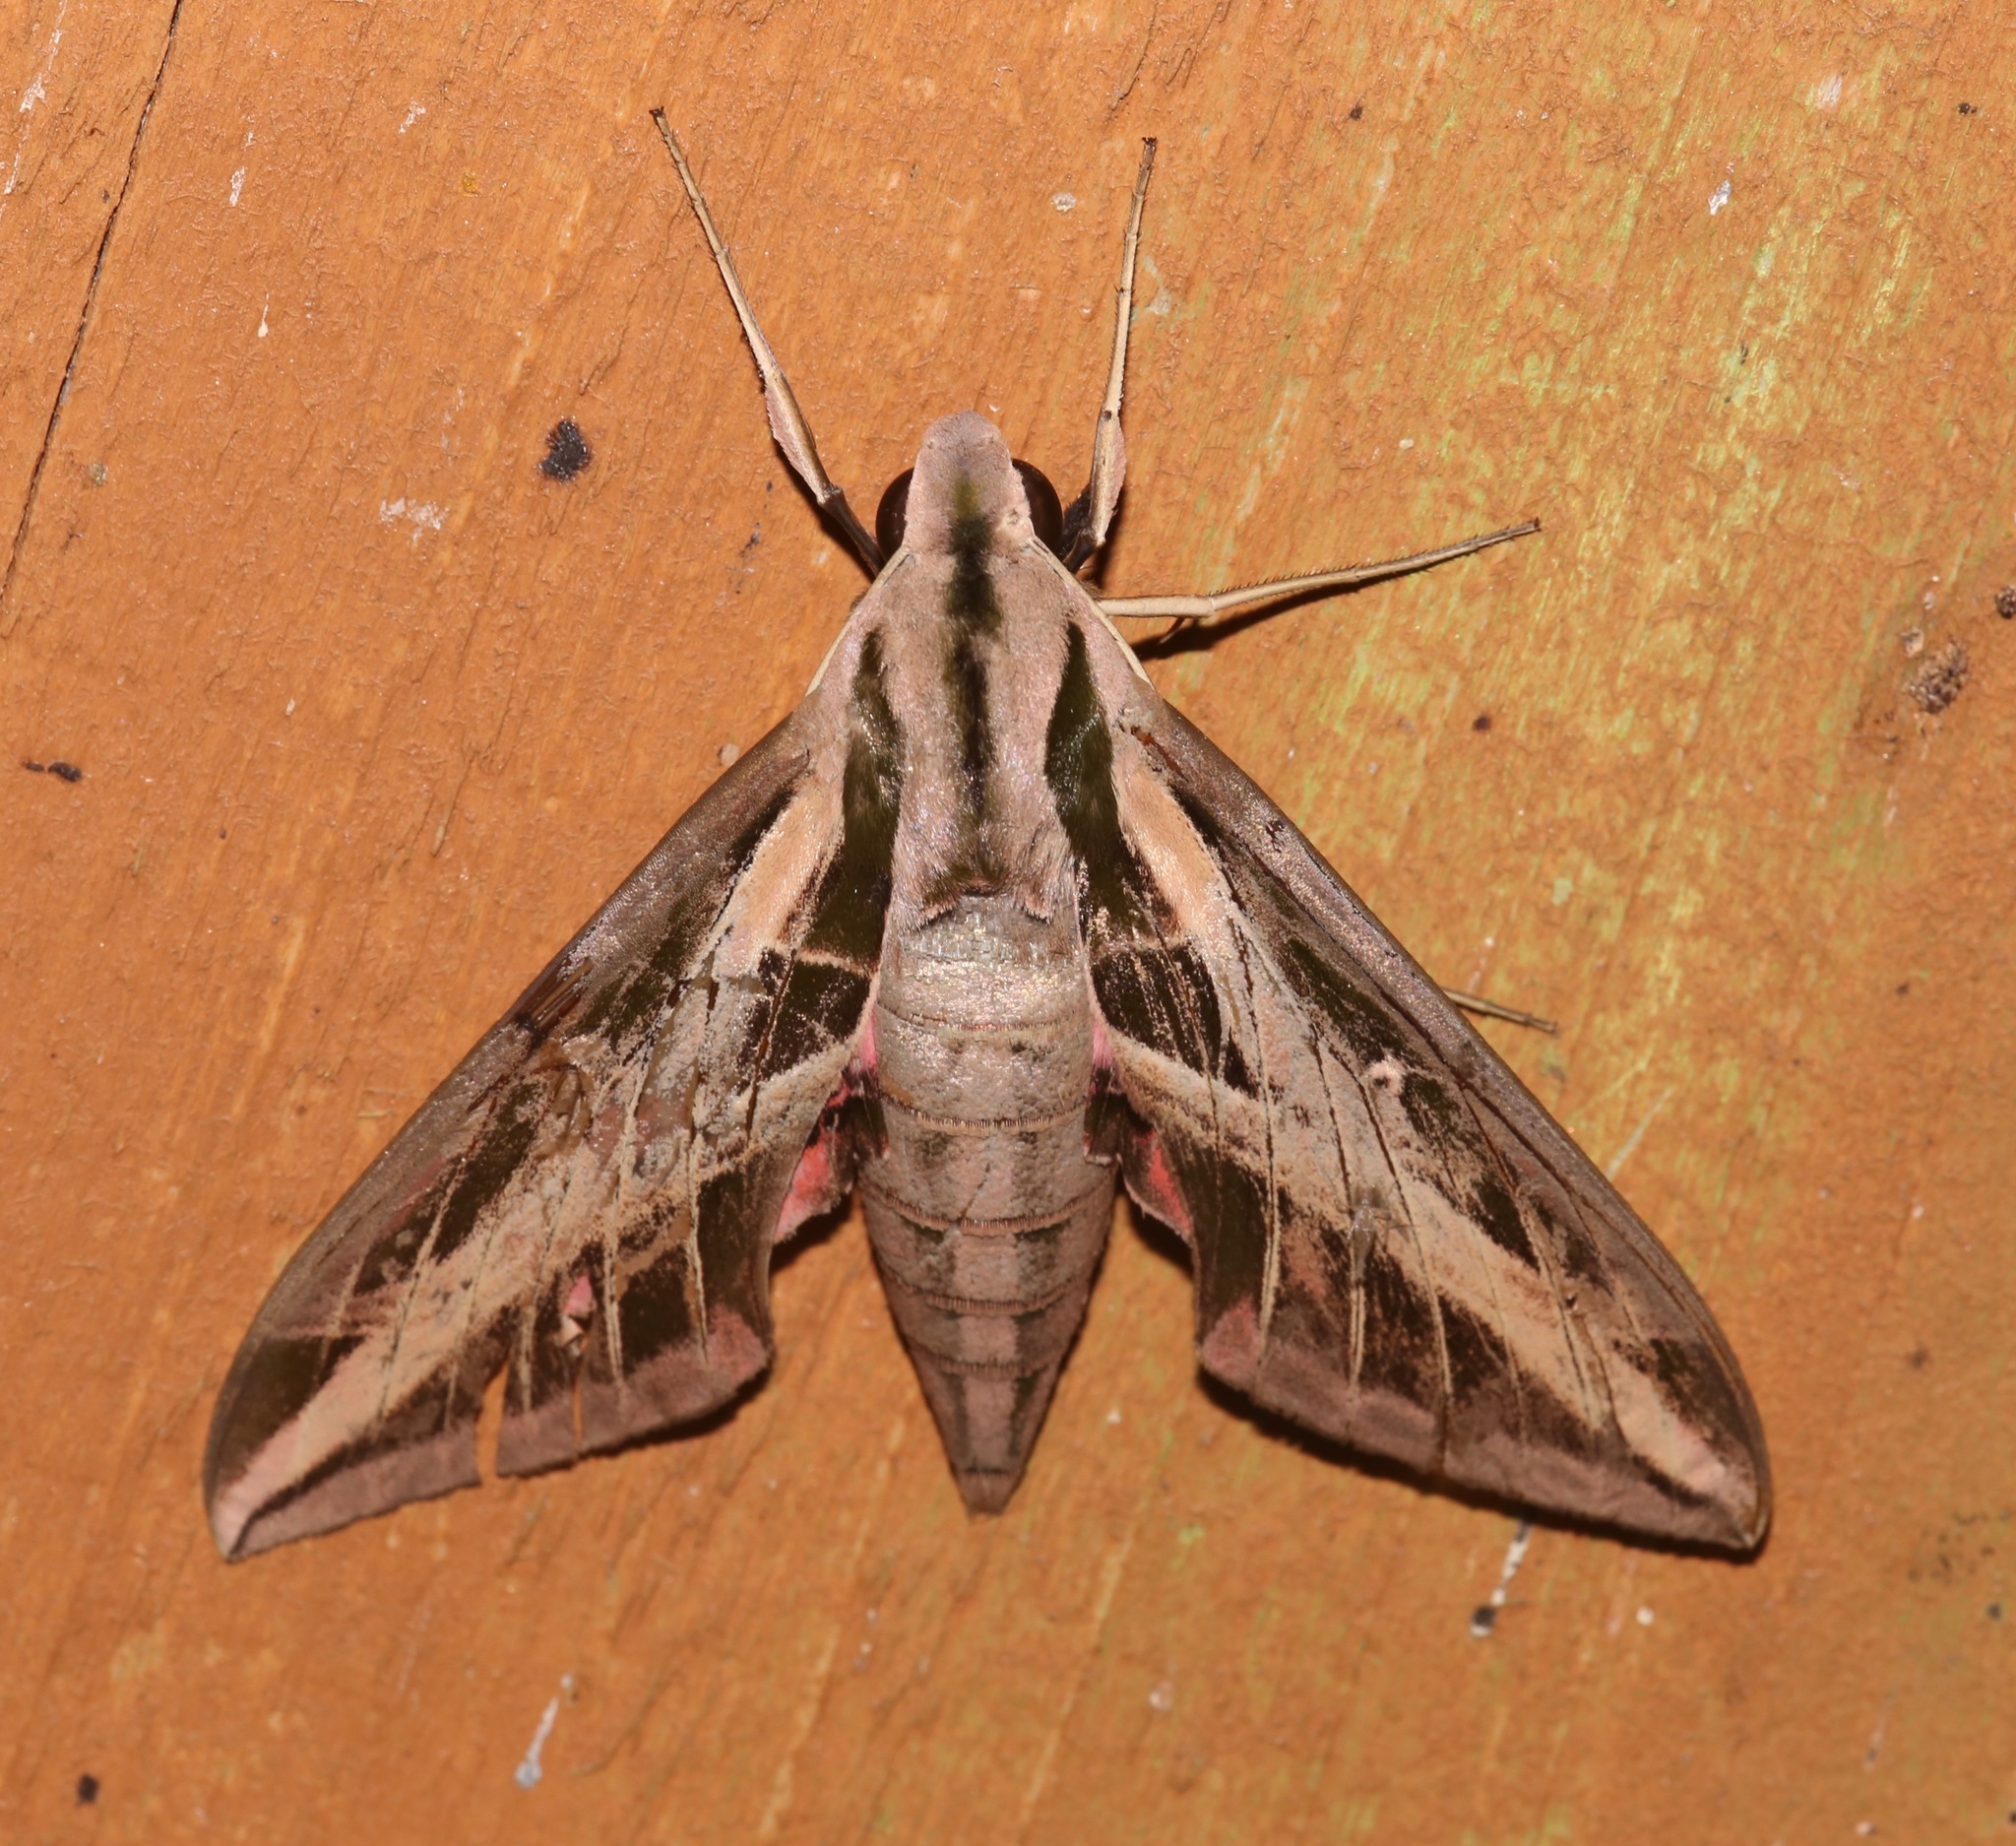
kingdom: Animalia
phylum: Arthropoda
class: Insecta
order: Lepidoptera
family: Sphingidae
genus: Eumorpha
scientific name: Eumorpha fasciatus
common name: Banded sphinx
